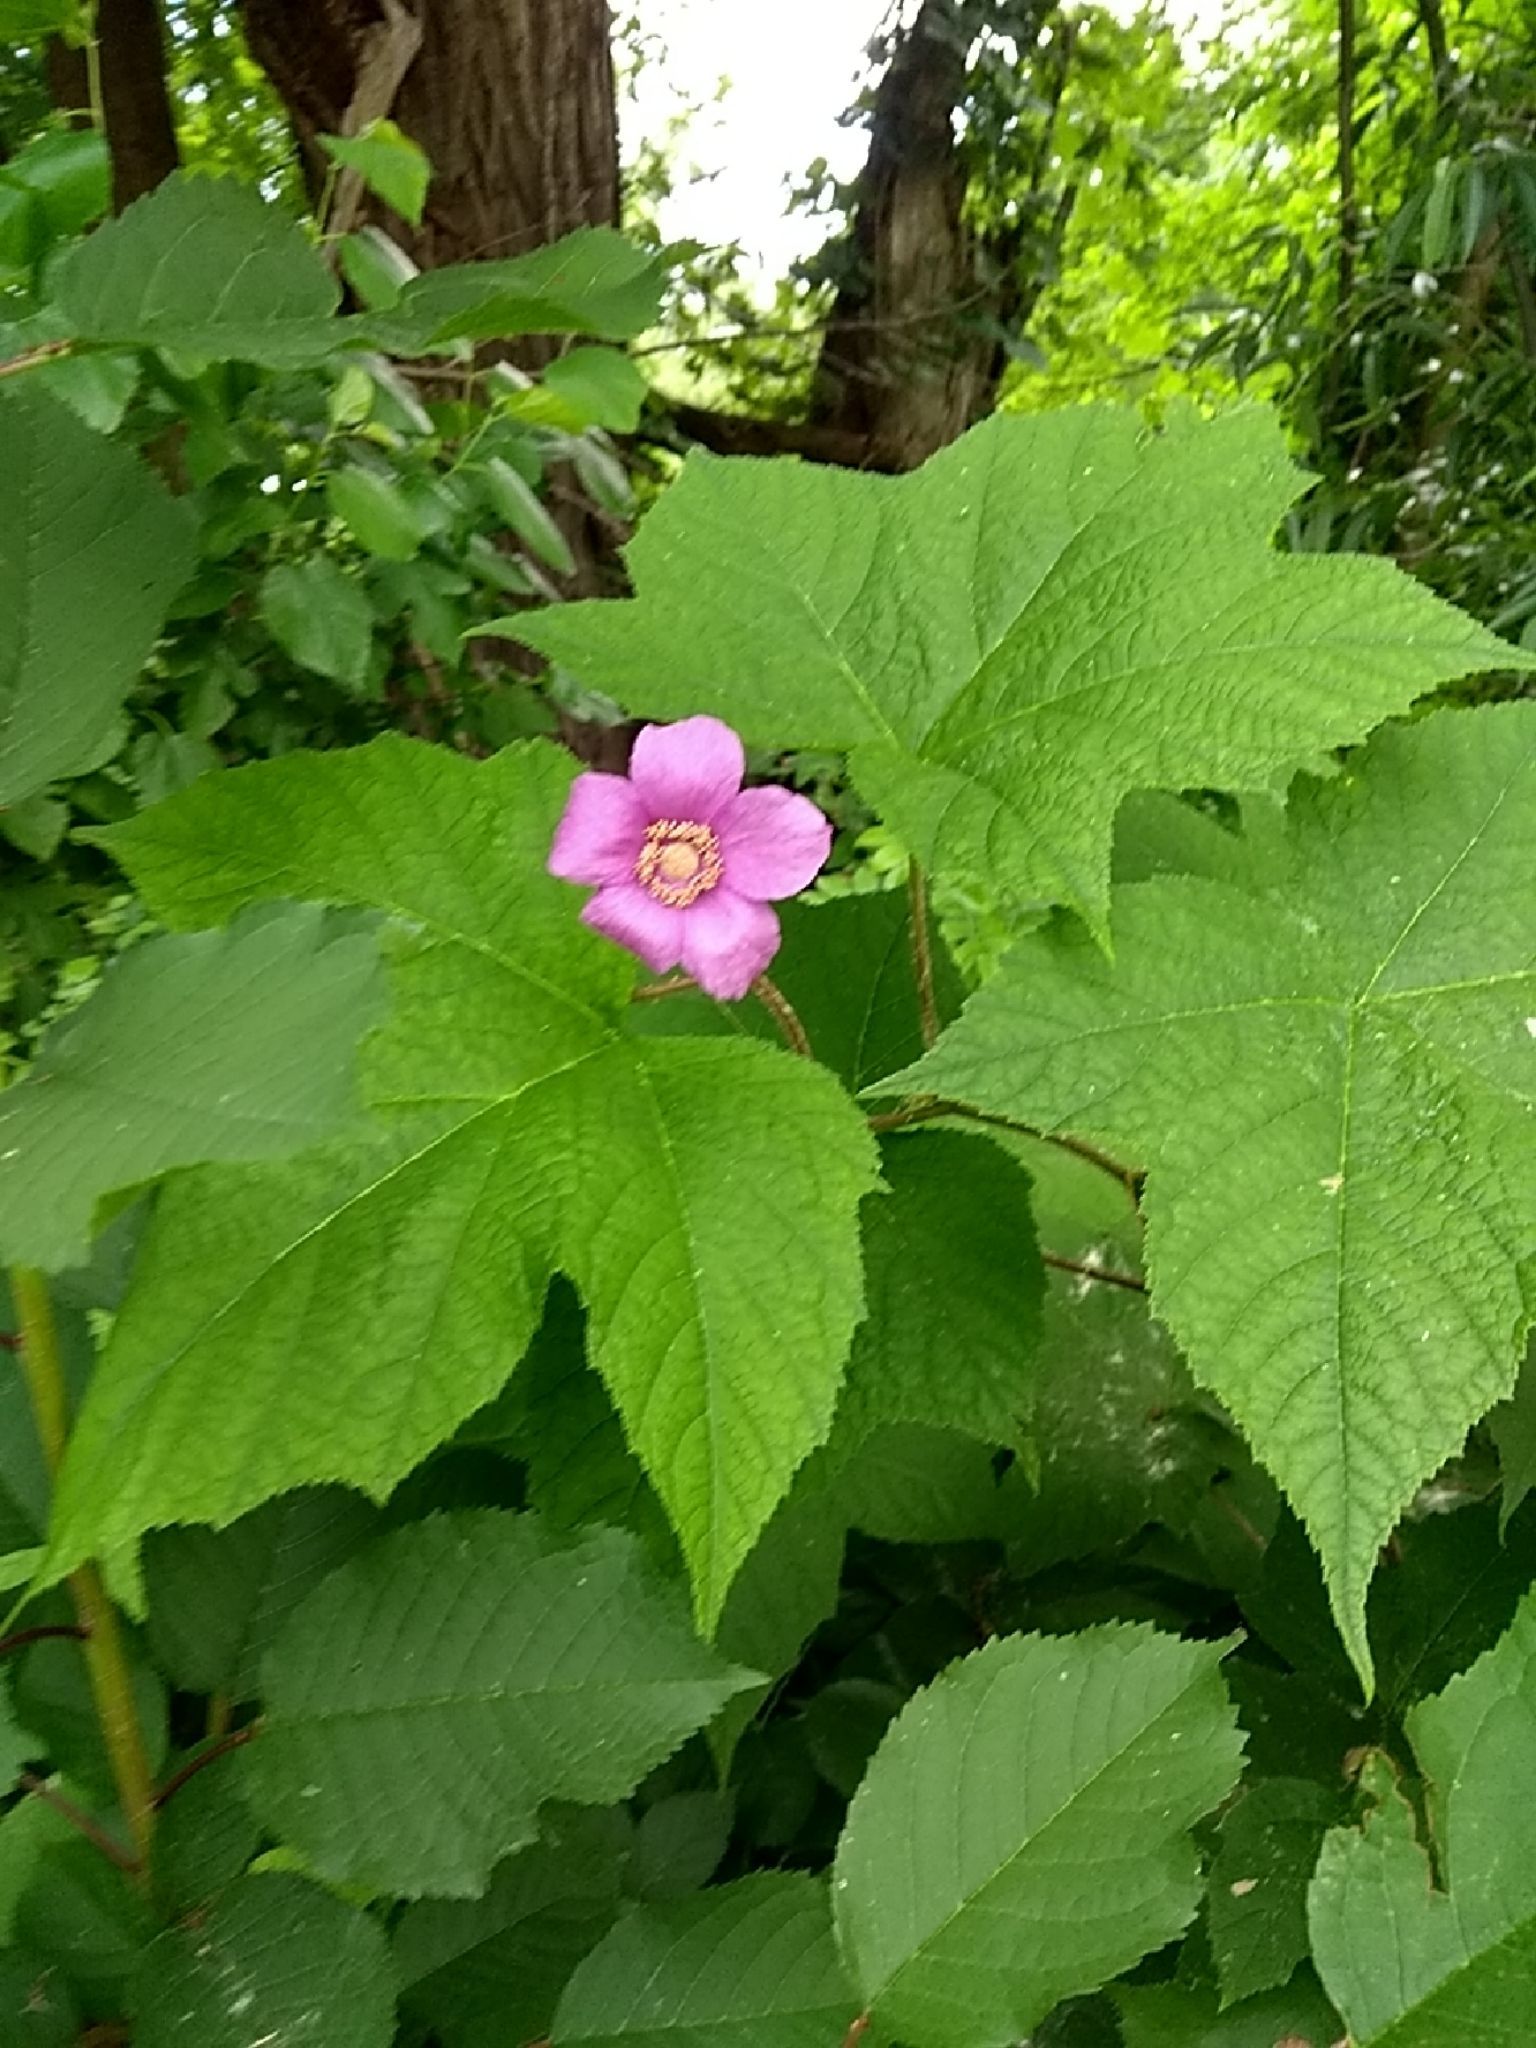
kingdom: Plantae
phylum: Tracheophyta
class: Magnoliopsida
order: Rosales
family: Rosaceae
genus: Rubus
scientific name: Rubus odoratus
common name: Purple-flowered raspberry
